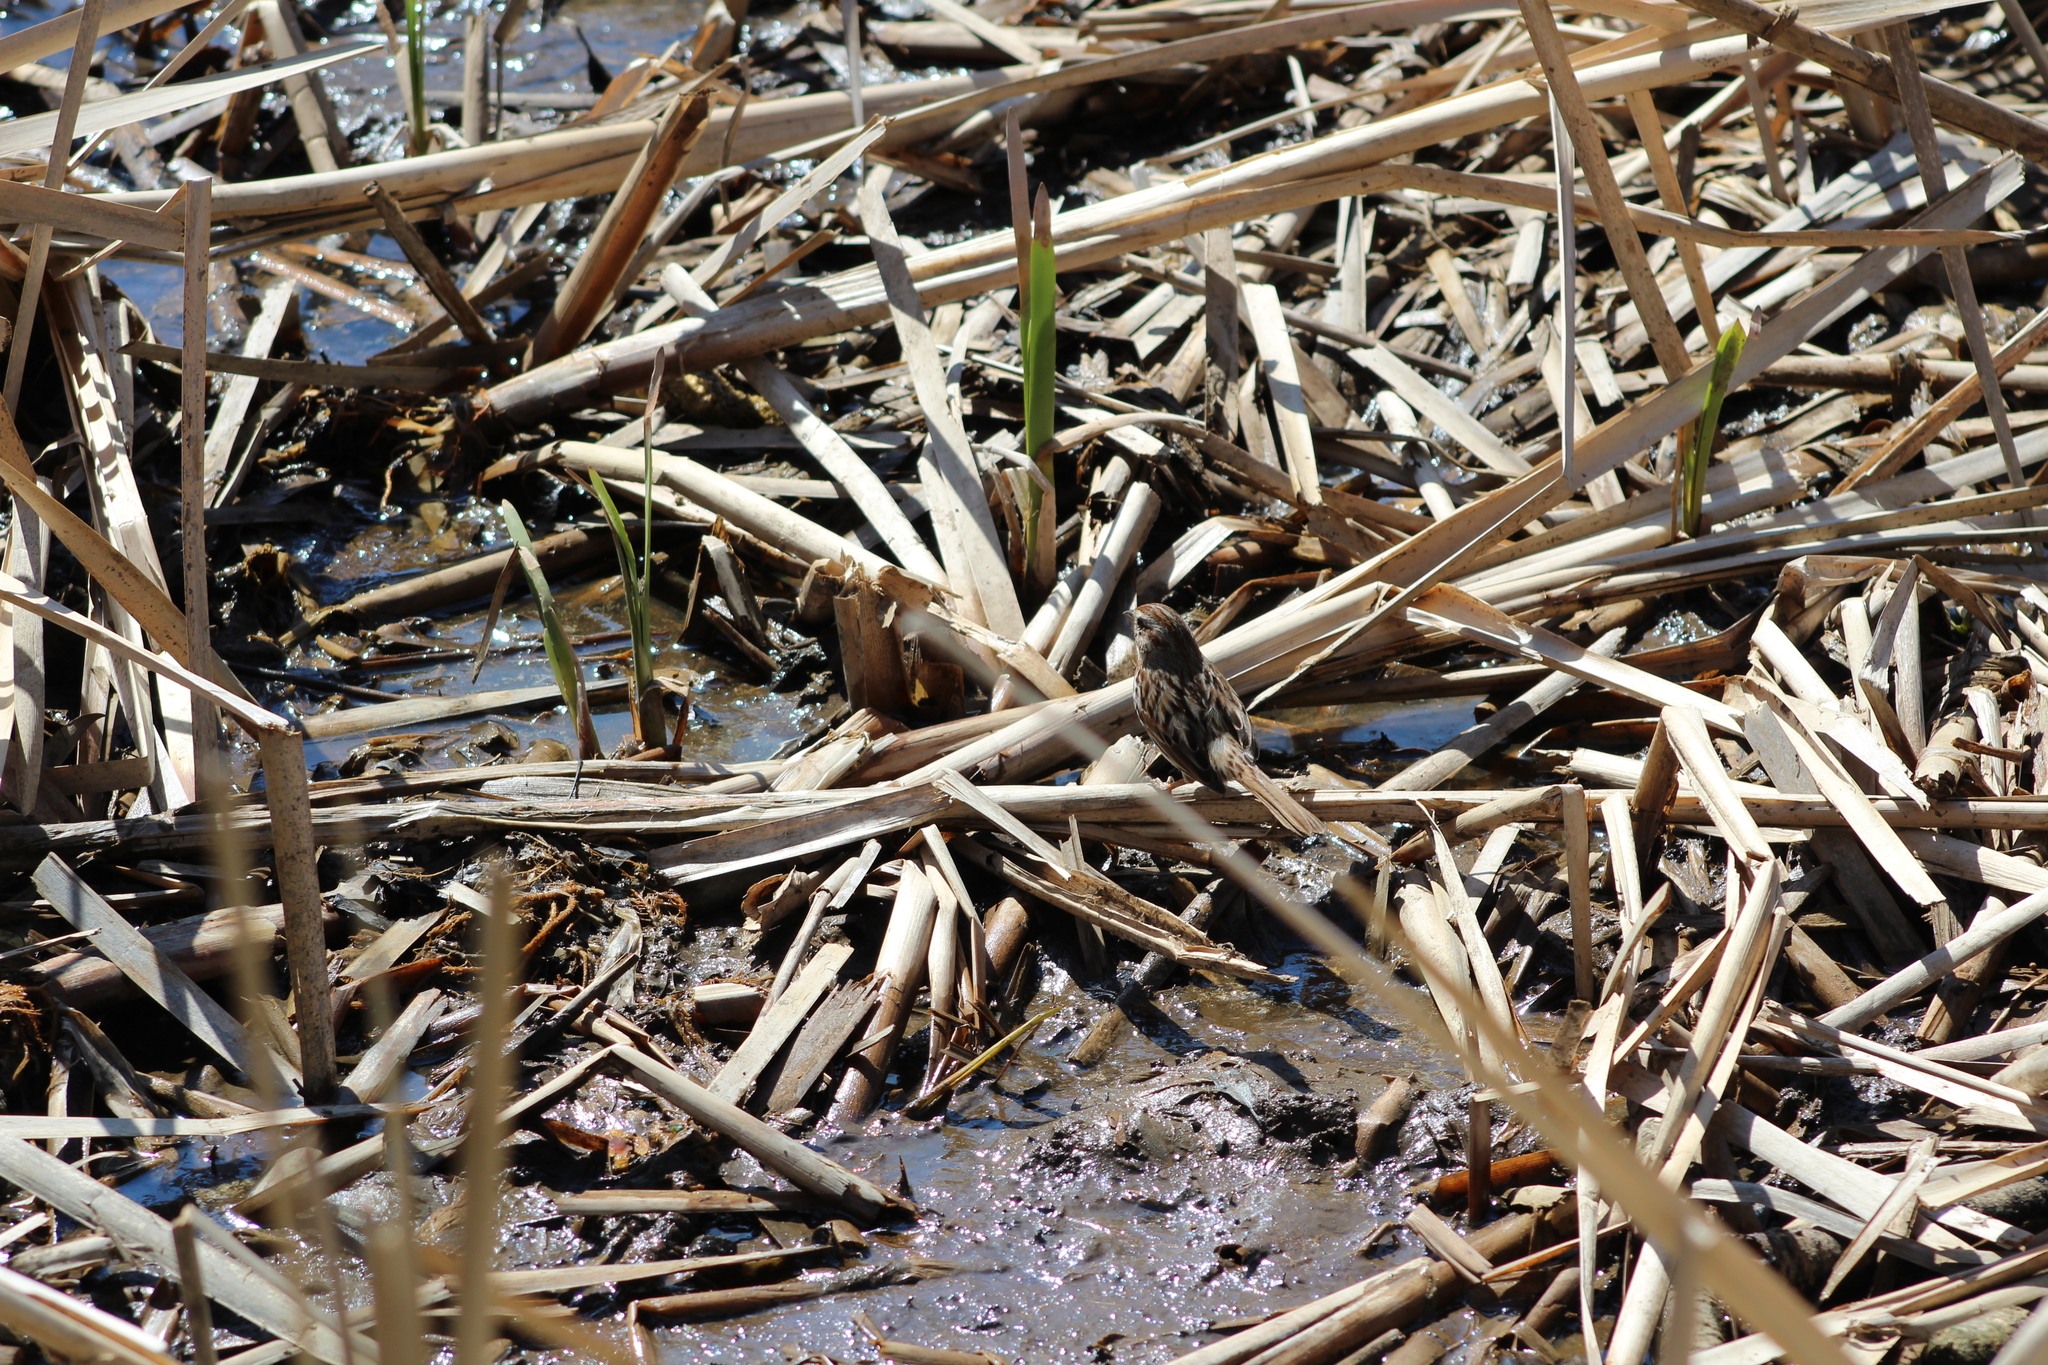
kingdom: Animalia
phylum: Chordata
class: Aves
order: Passeriformes
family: Passerellidae
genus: Melospiza
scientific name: Melospiza melodia
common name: Song sparrow
